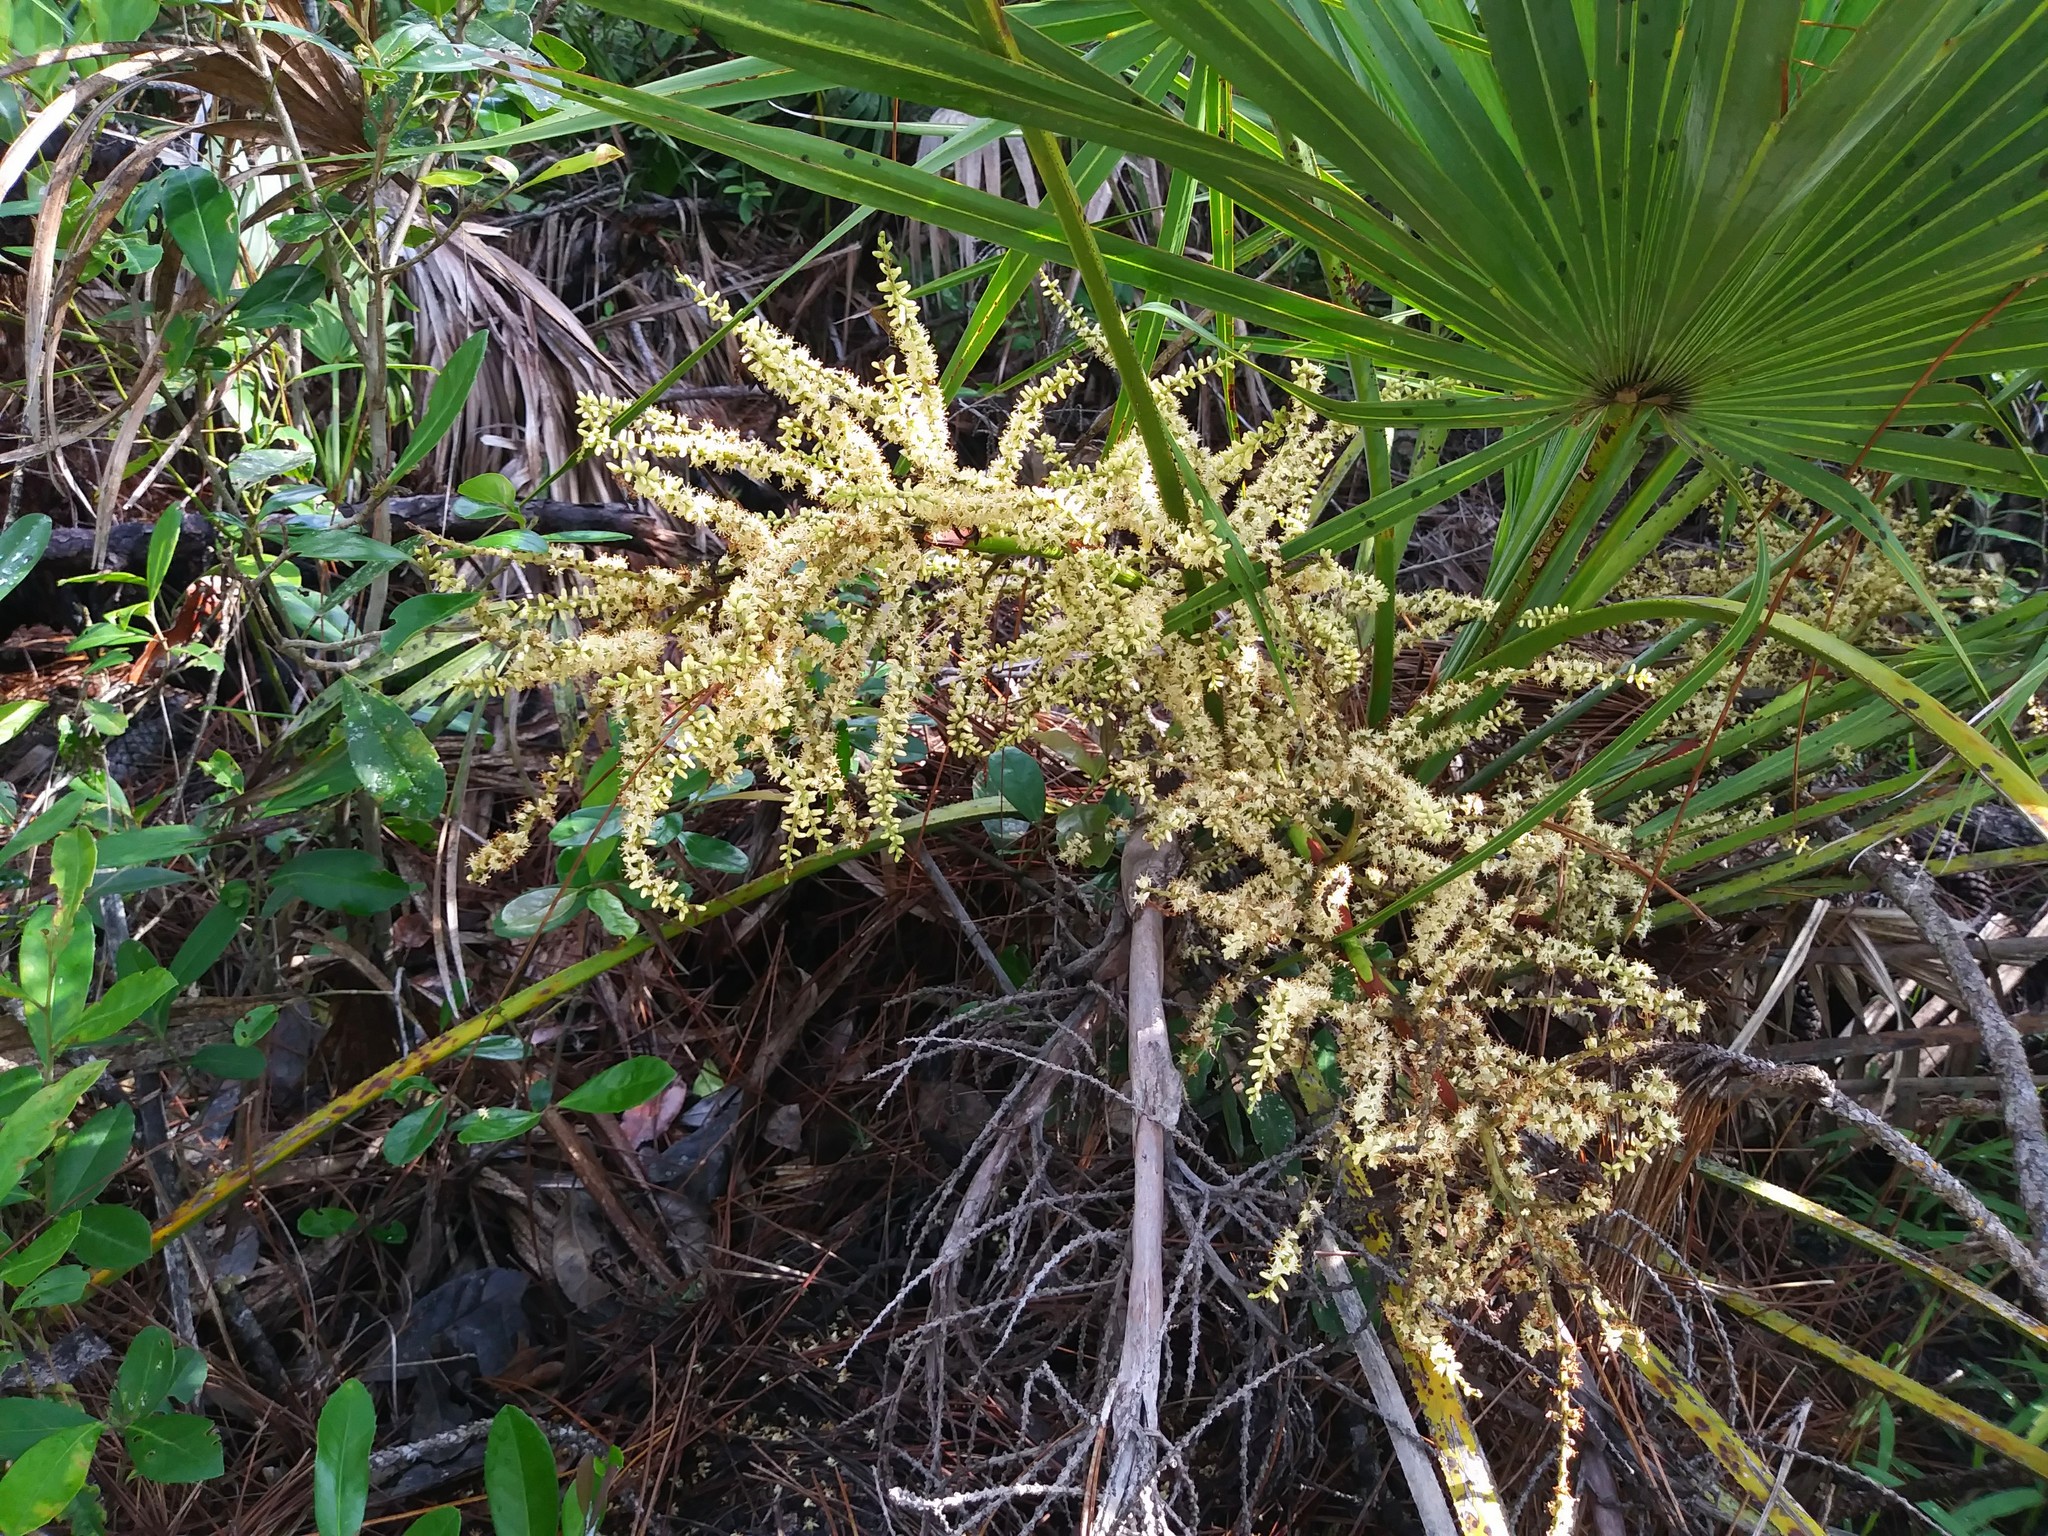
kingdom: Plantae
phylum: Tracheophyta
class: Liliopsida
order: Arecales
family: Arecaceae
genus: Serenoa
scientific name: Serenoa repens
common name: Saw-palmetto
